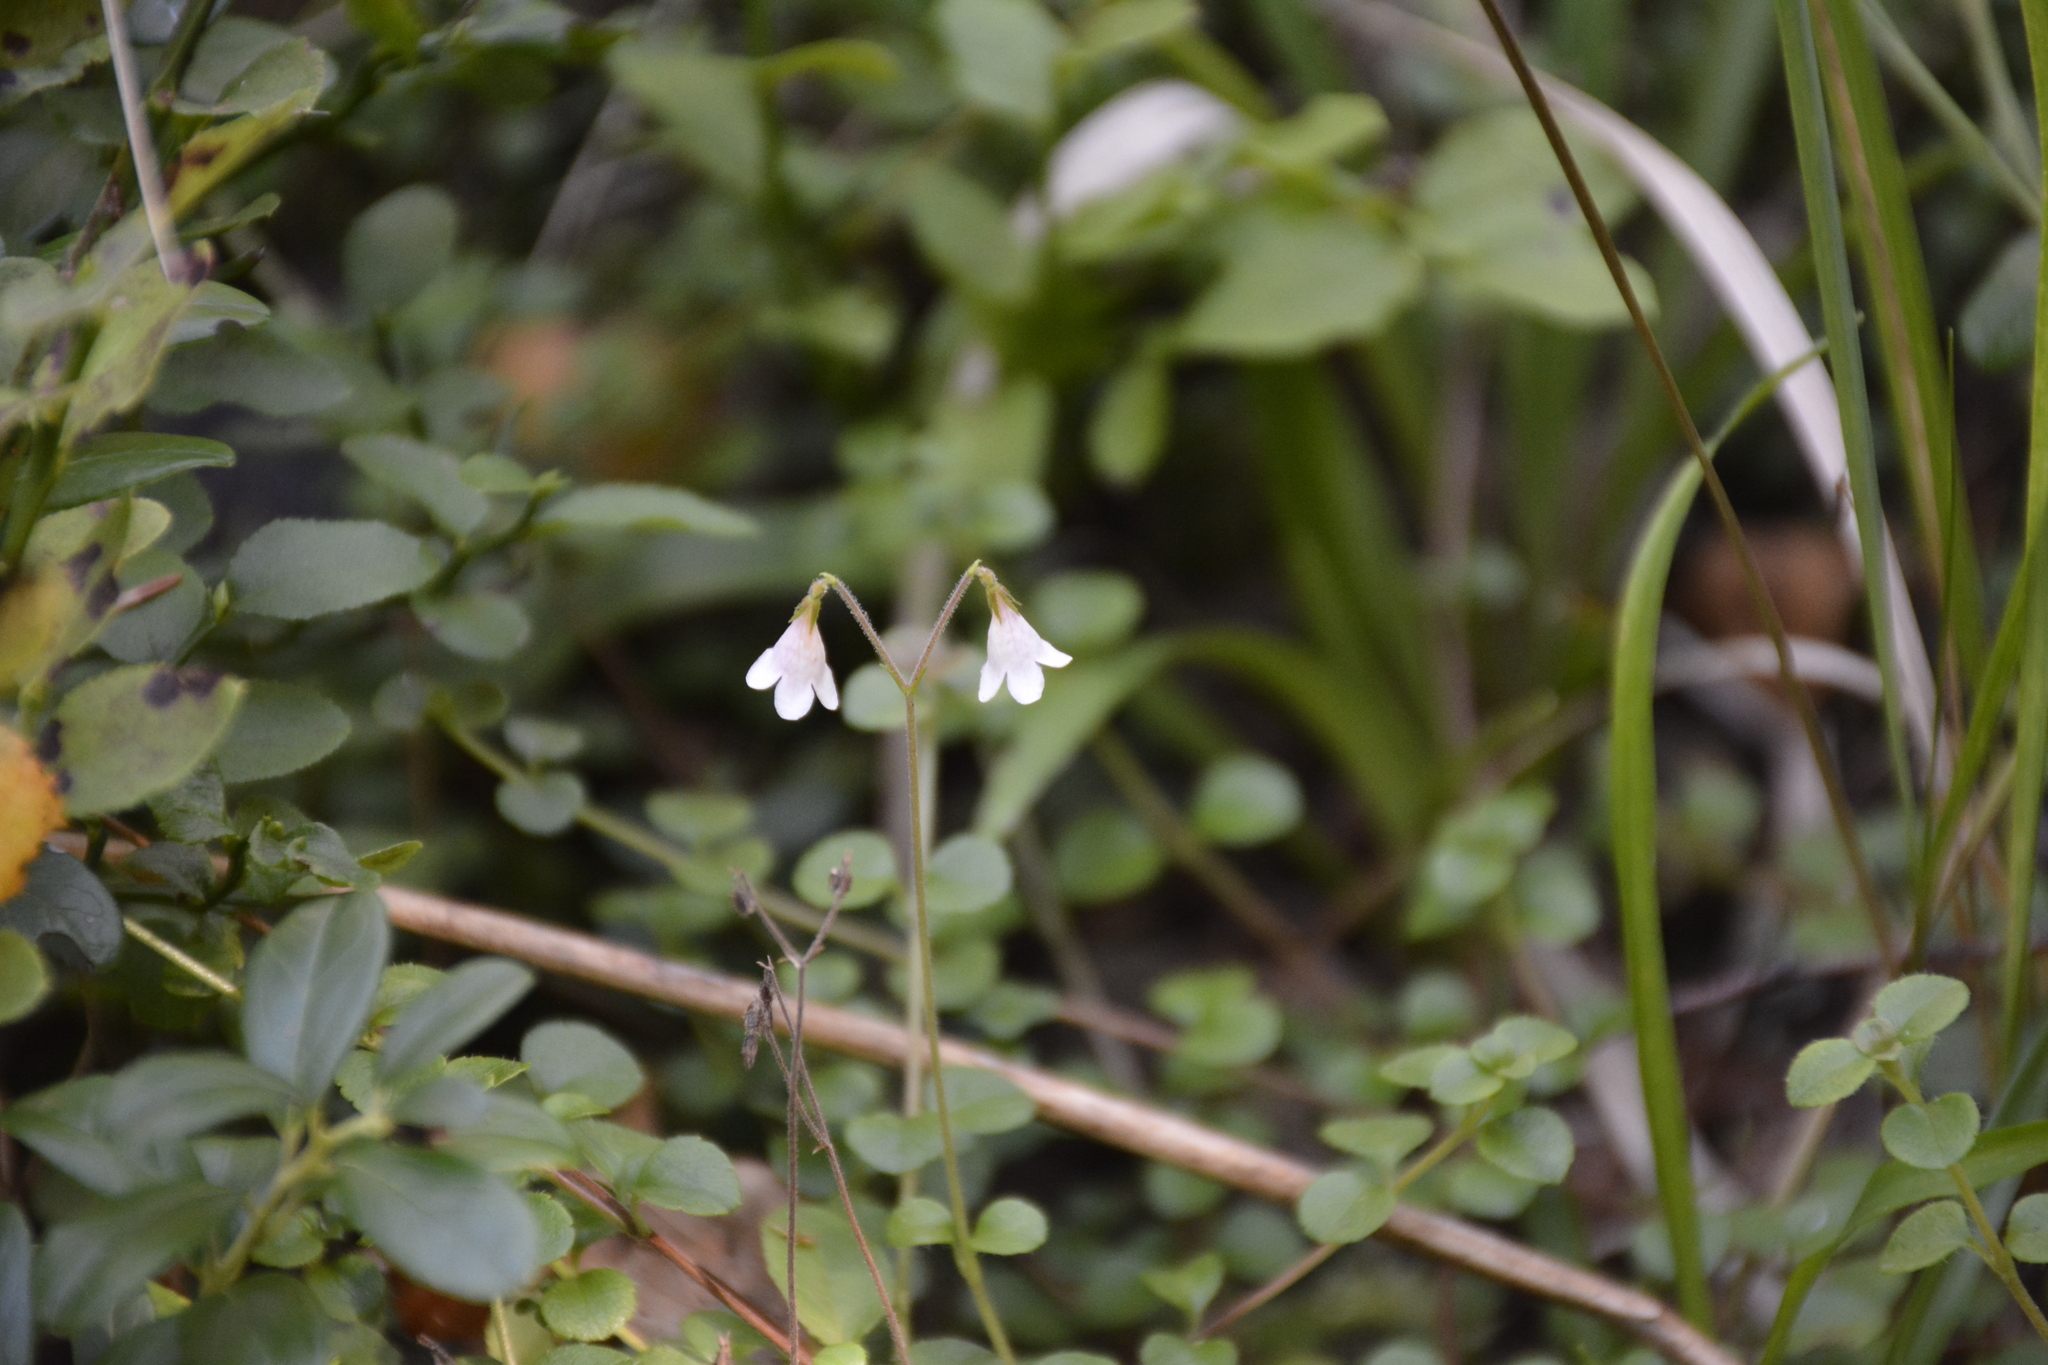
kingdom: Plantae
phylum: Tracheophyta
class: Magnoliopsida
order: Dipsacales
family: Caprifoliaceae
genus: Linnaea
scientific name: Linnaea borealis
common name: Twinflower
